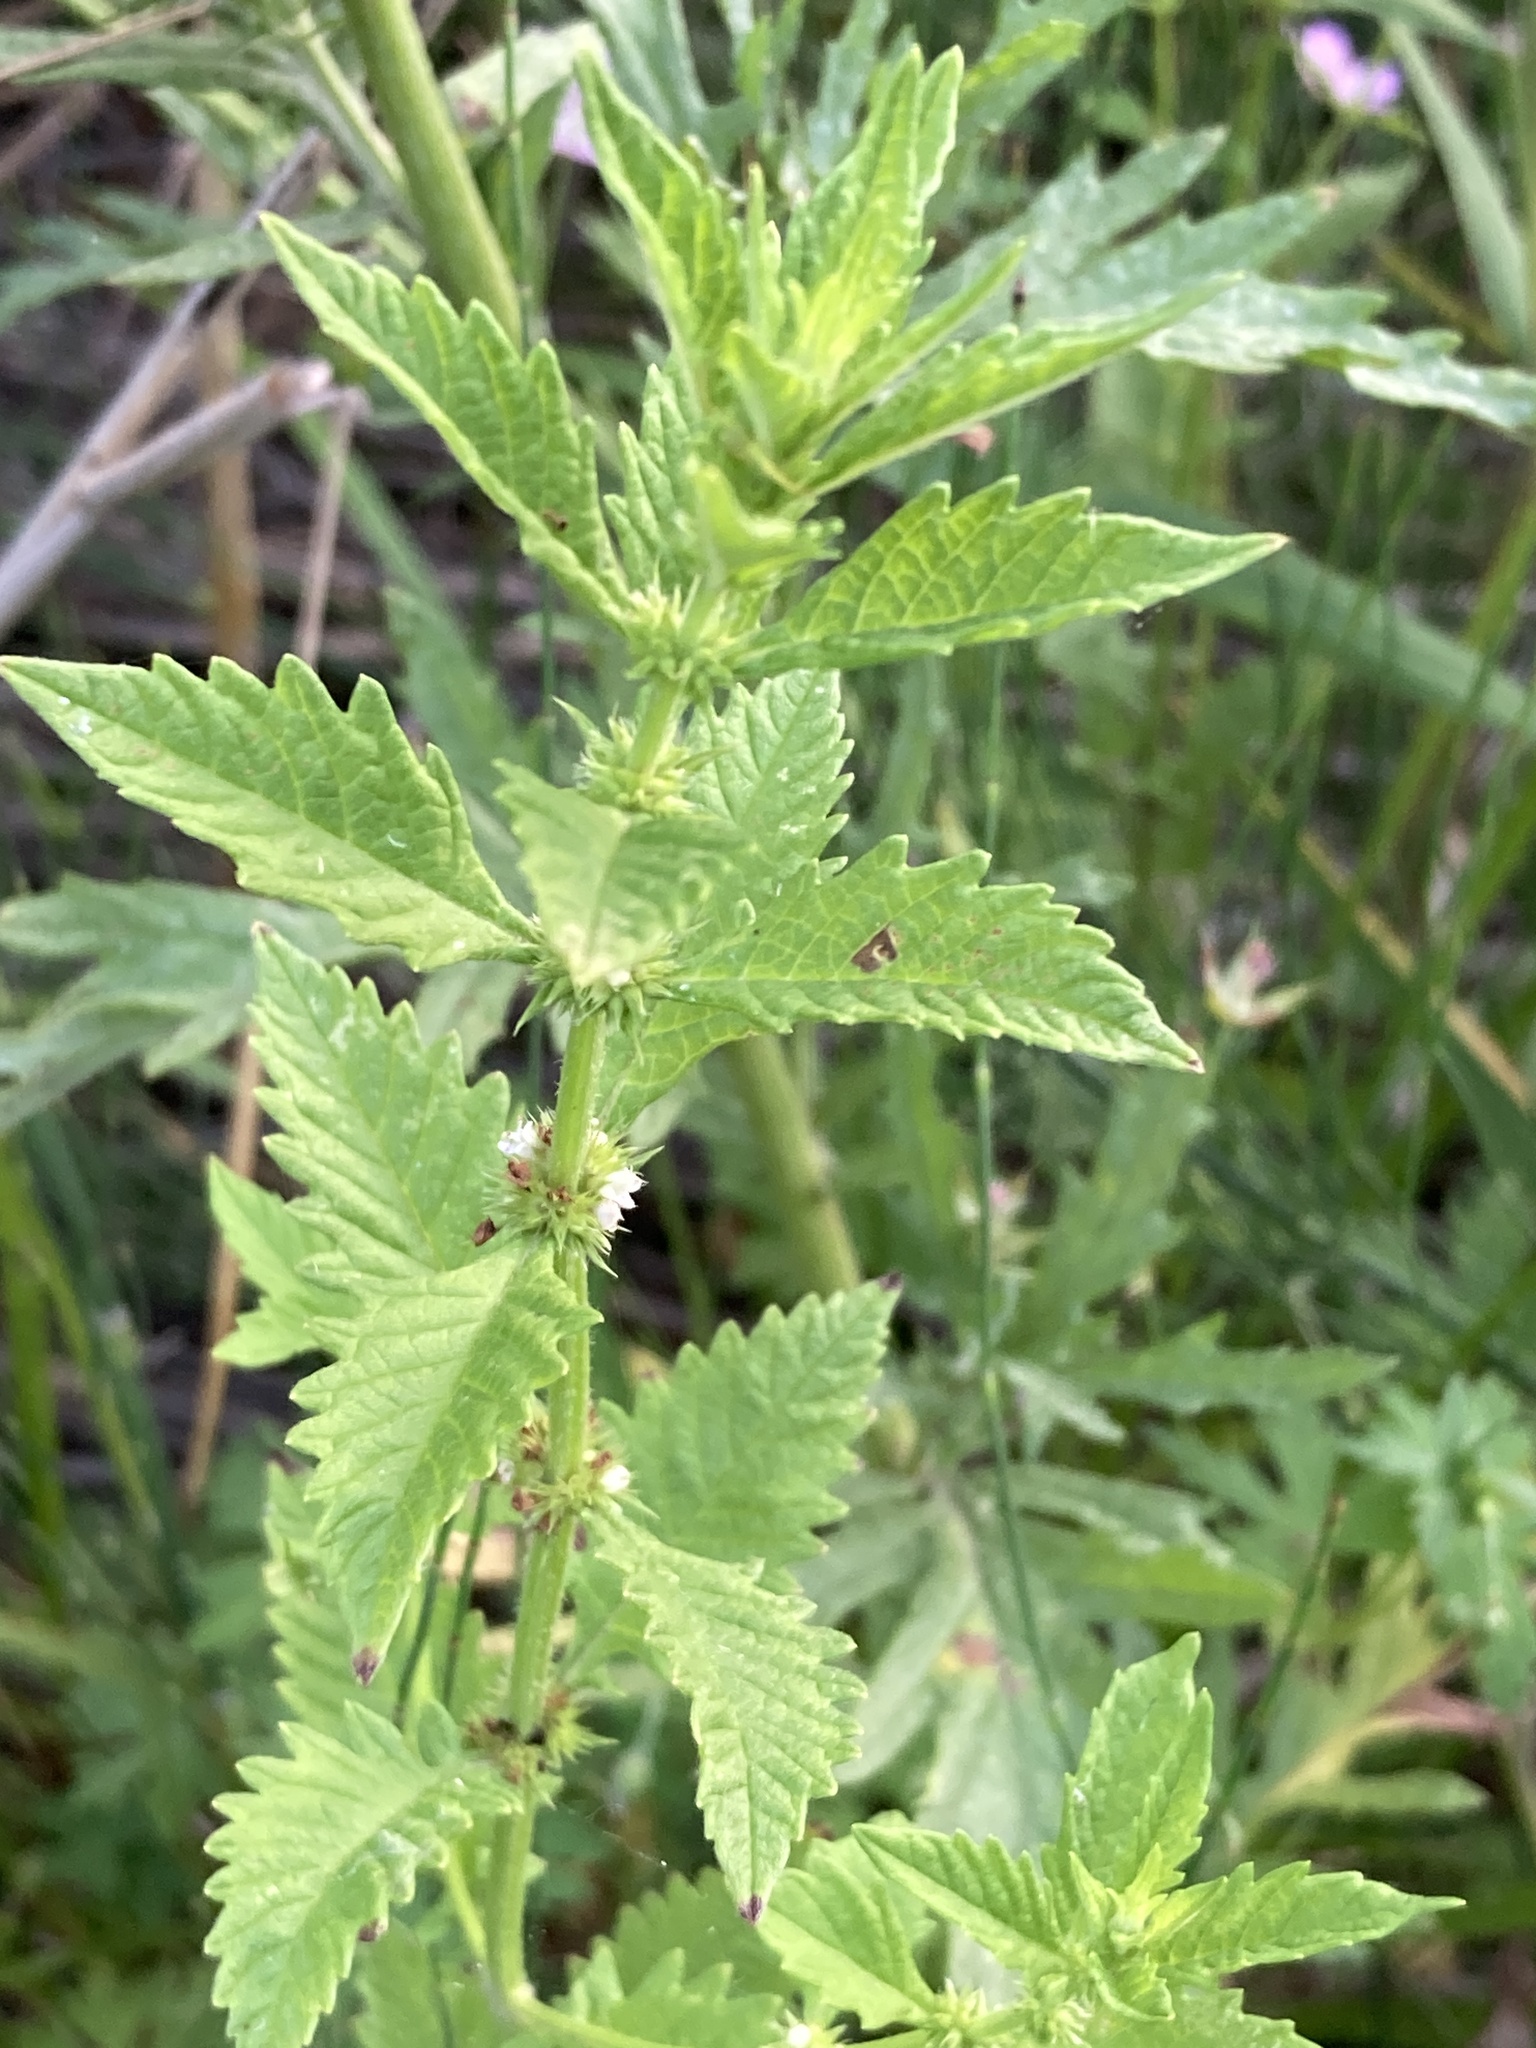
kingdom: Plantae
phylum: Tracheophyta
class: Magnoliopsida
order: Lamiales
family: Lamiaceae
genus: Lycopus
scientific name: Lycopus europaeus
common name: European bugleweed
